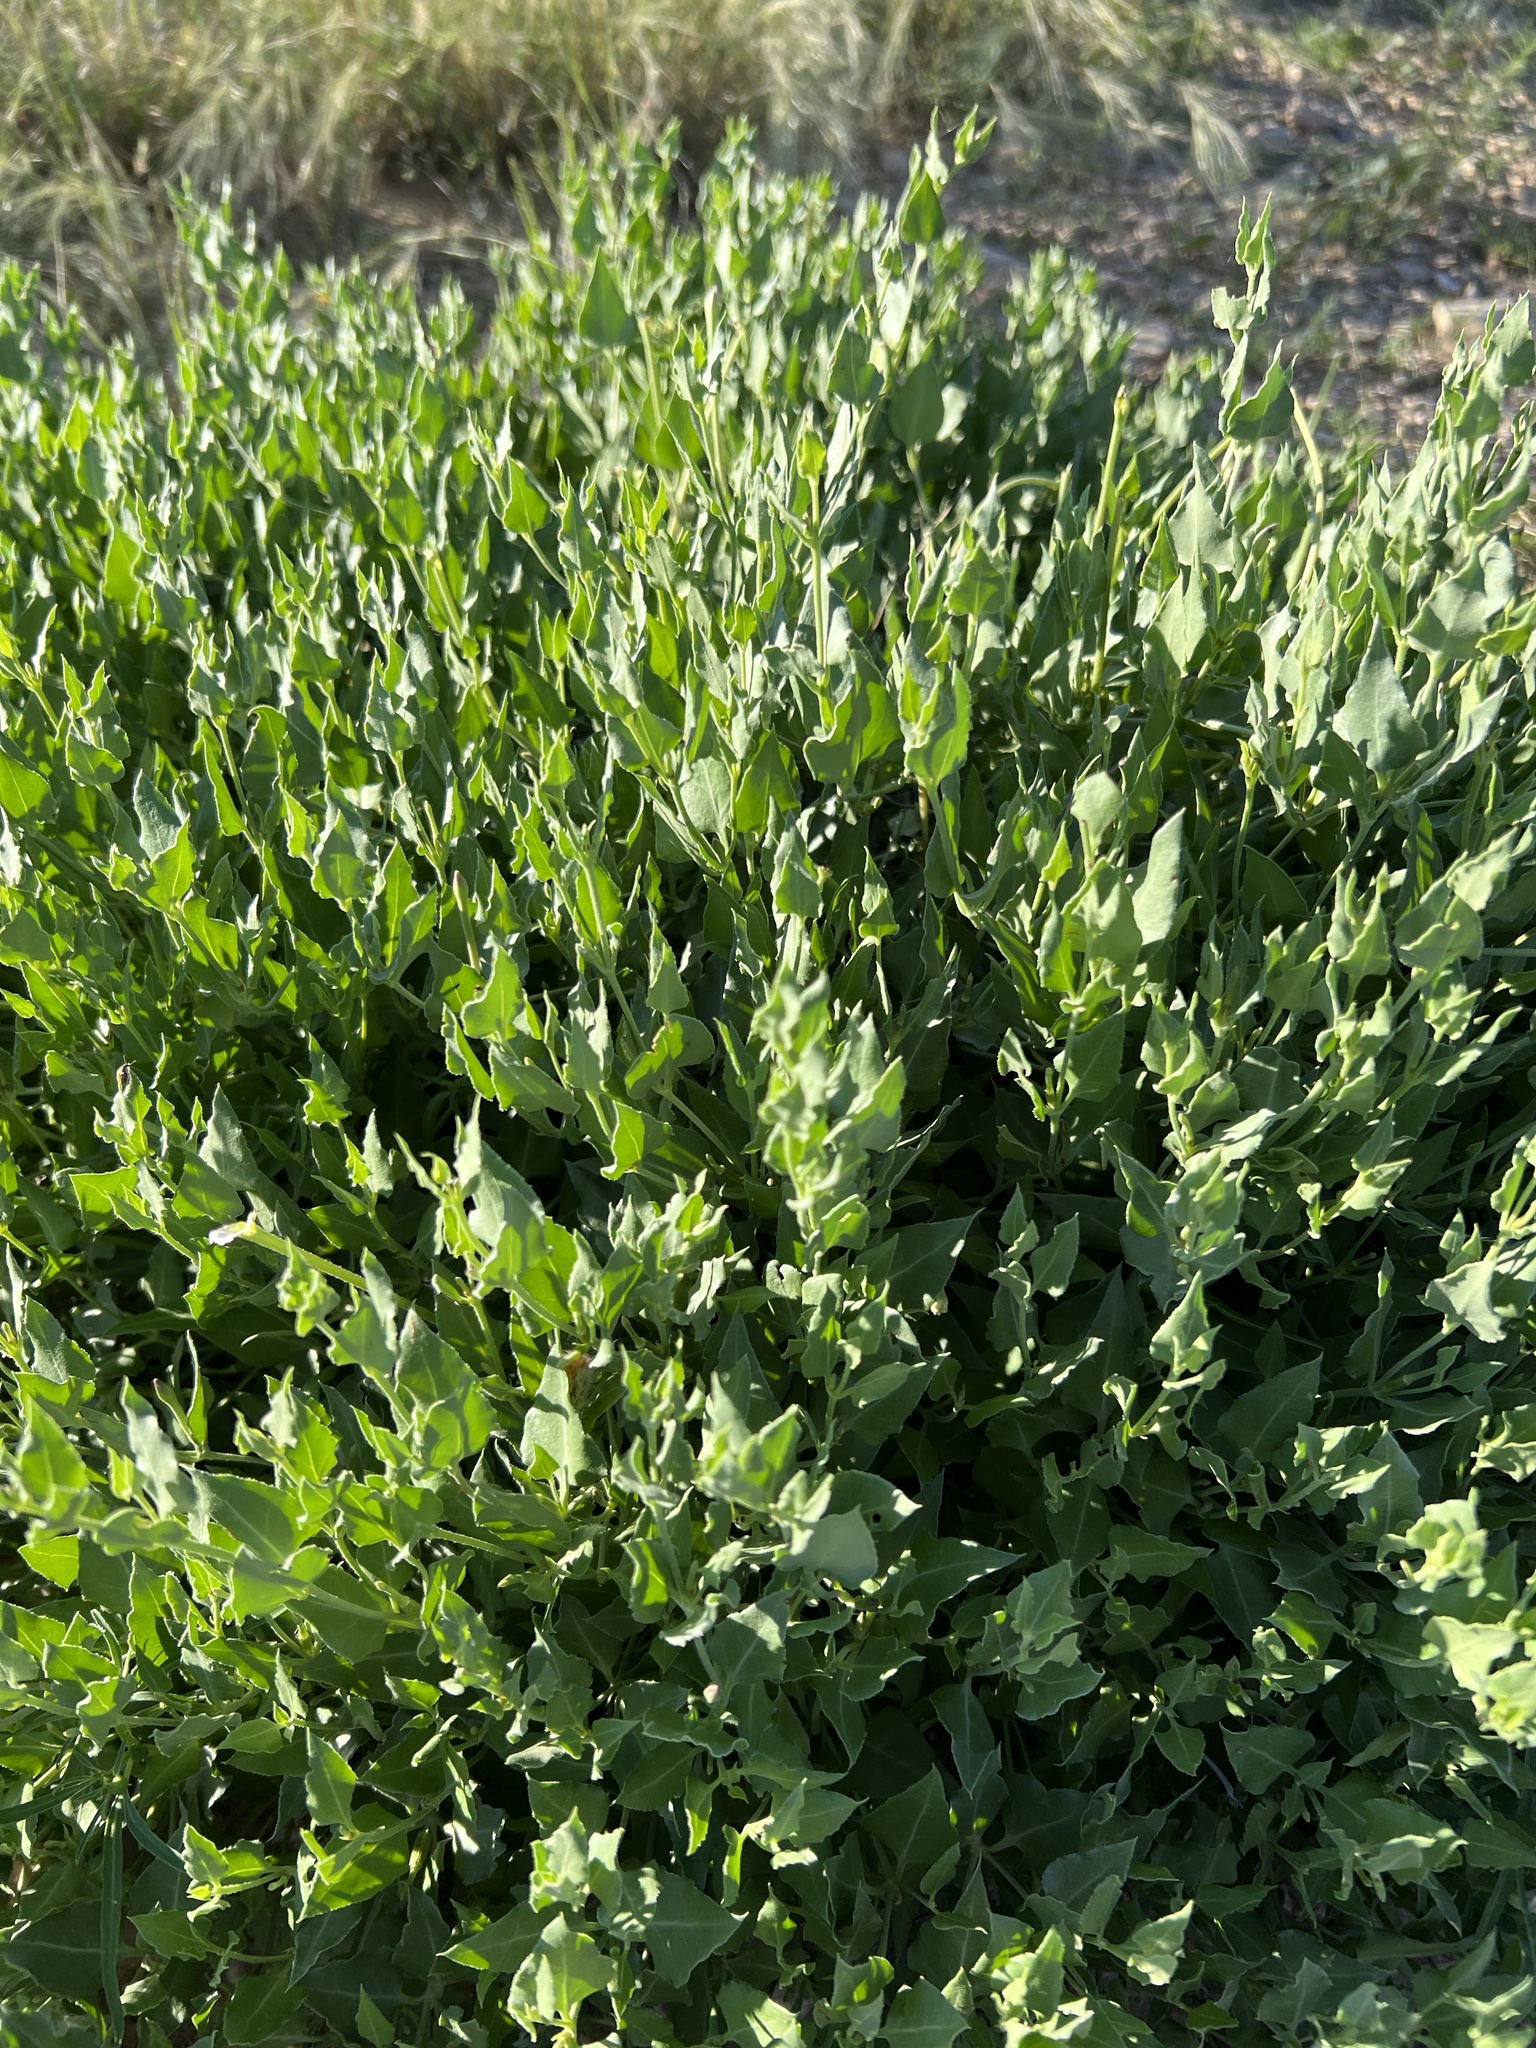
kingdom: Plantae
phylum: Tracheophyta
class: Magnoliopsida
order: Caryophyllales
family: Nyctaginaceae
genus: Acleisanthes
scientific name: Acleisanthes longiflora
